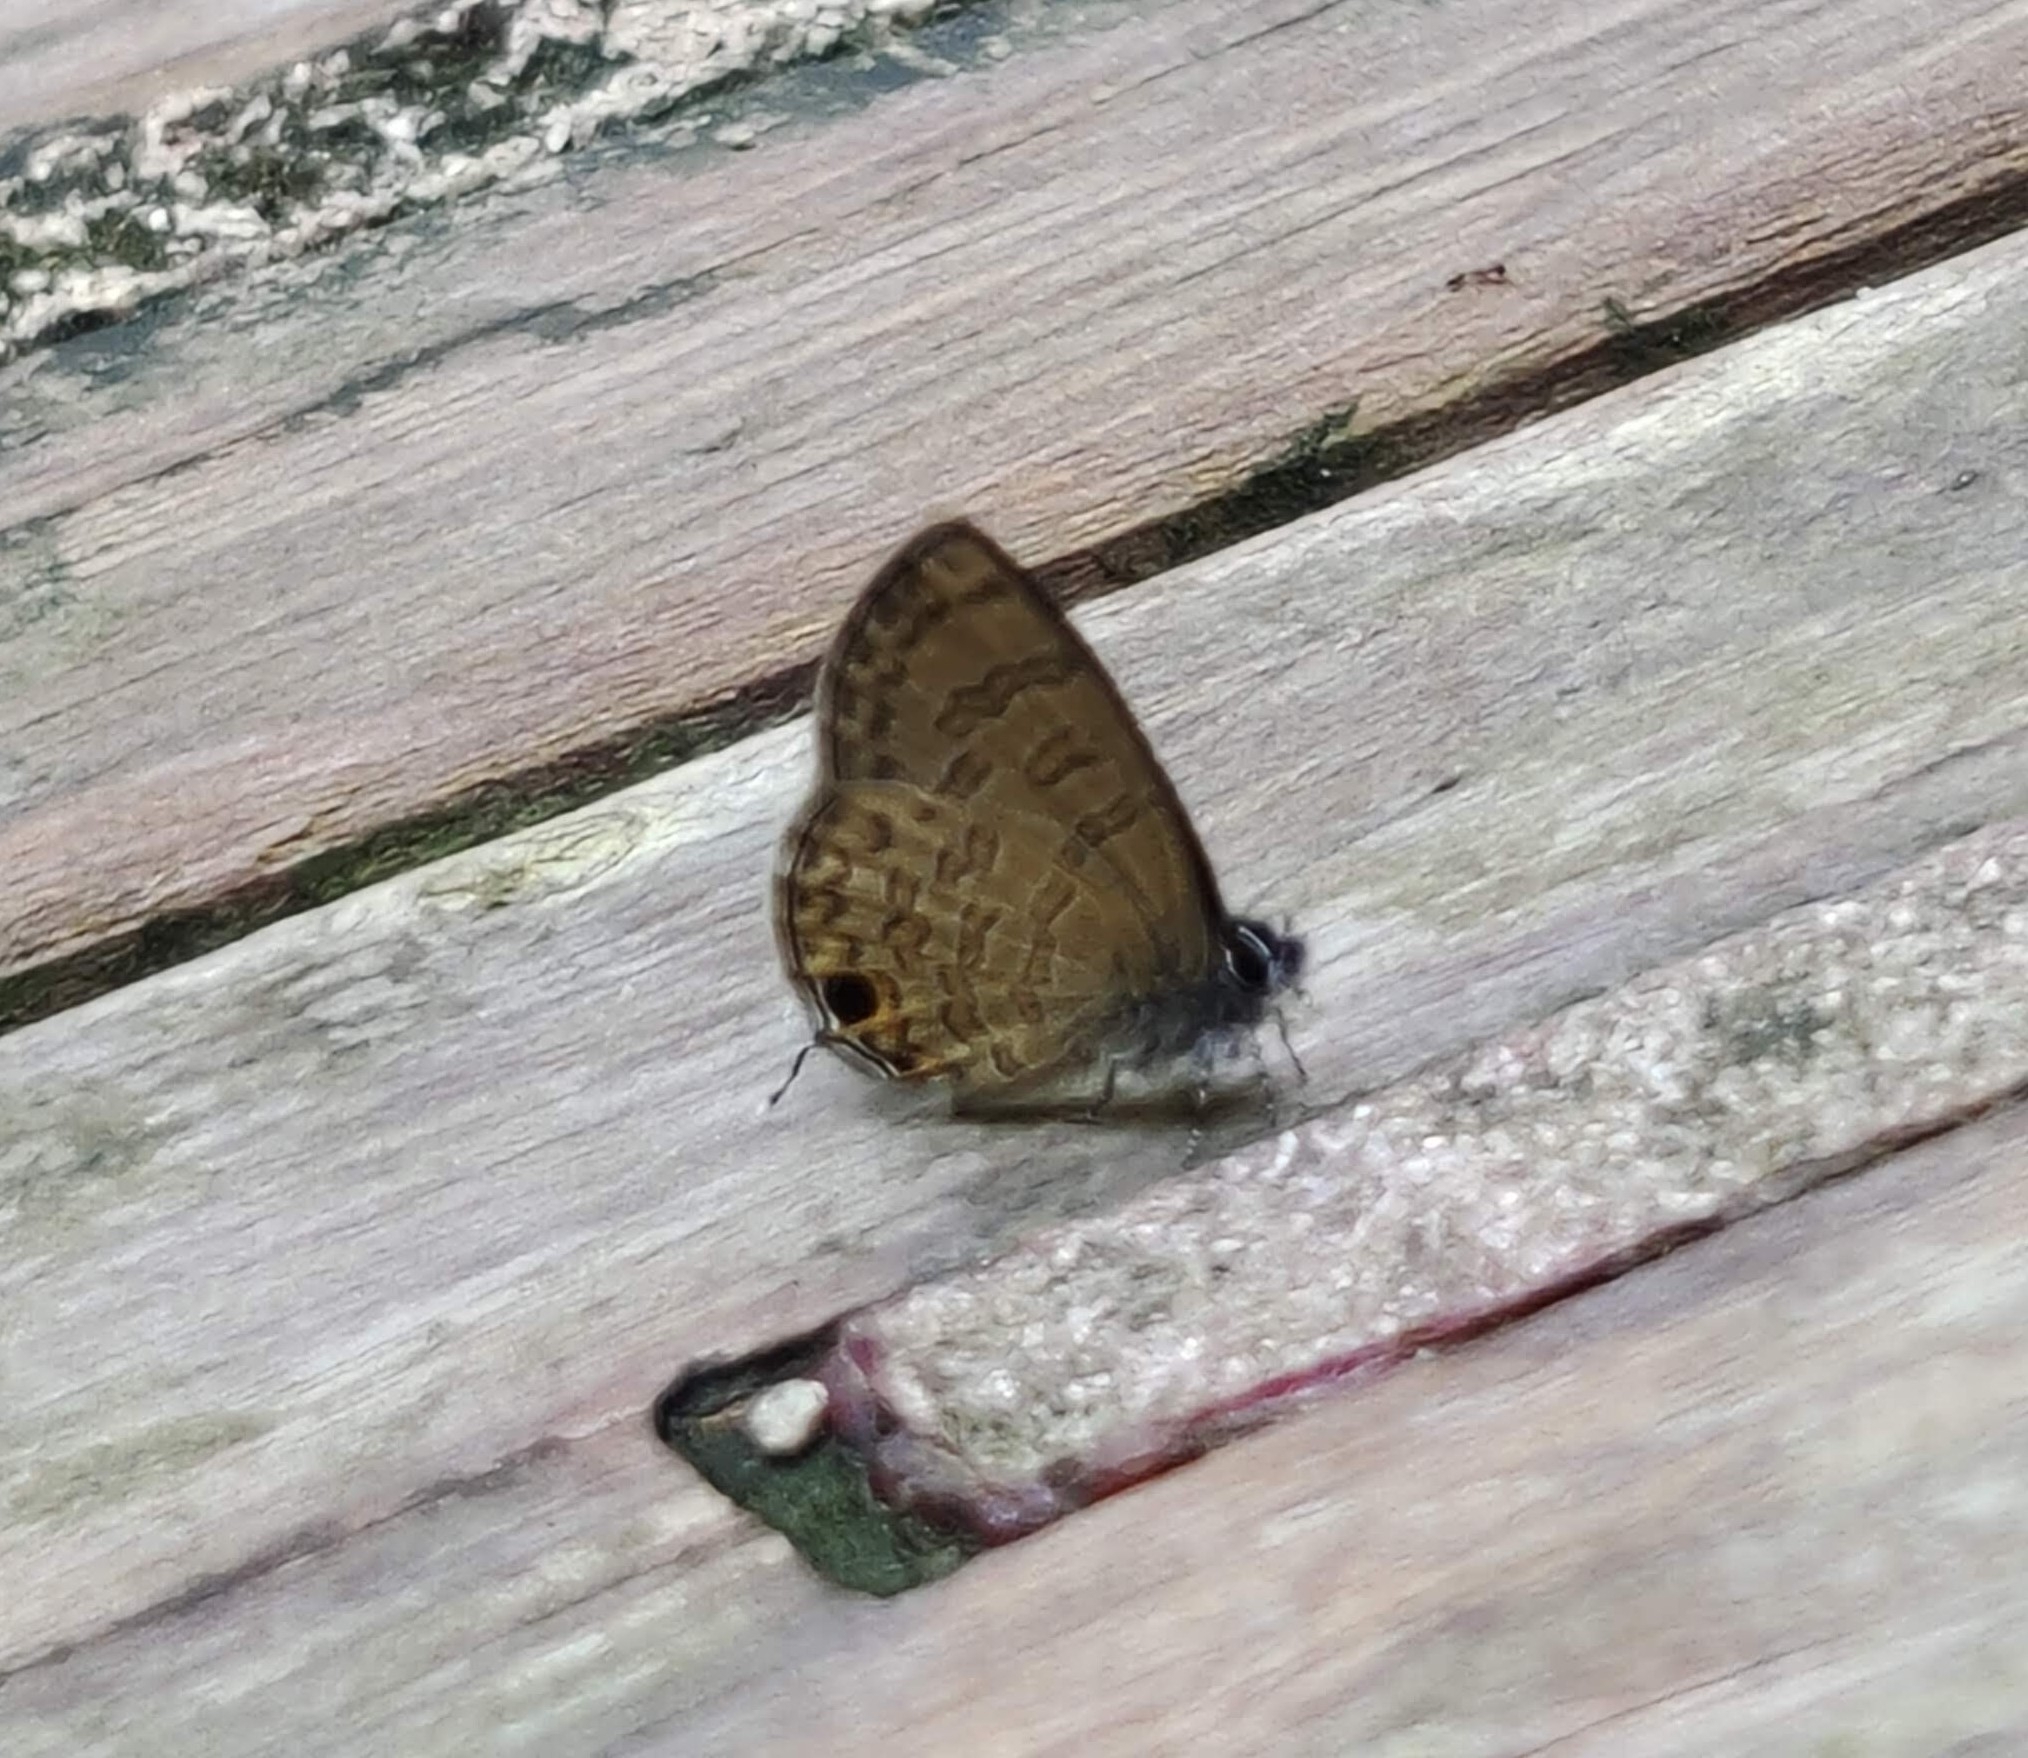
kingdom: Animalia
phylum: Arthropoda
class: Insecta
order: Lepidoptera
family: Lycaenidae
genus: Prosotas
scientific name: Prosotas nora
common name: Common line blue
